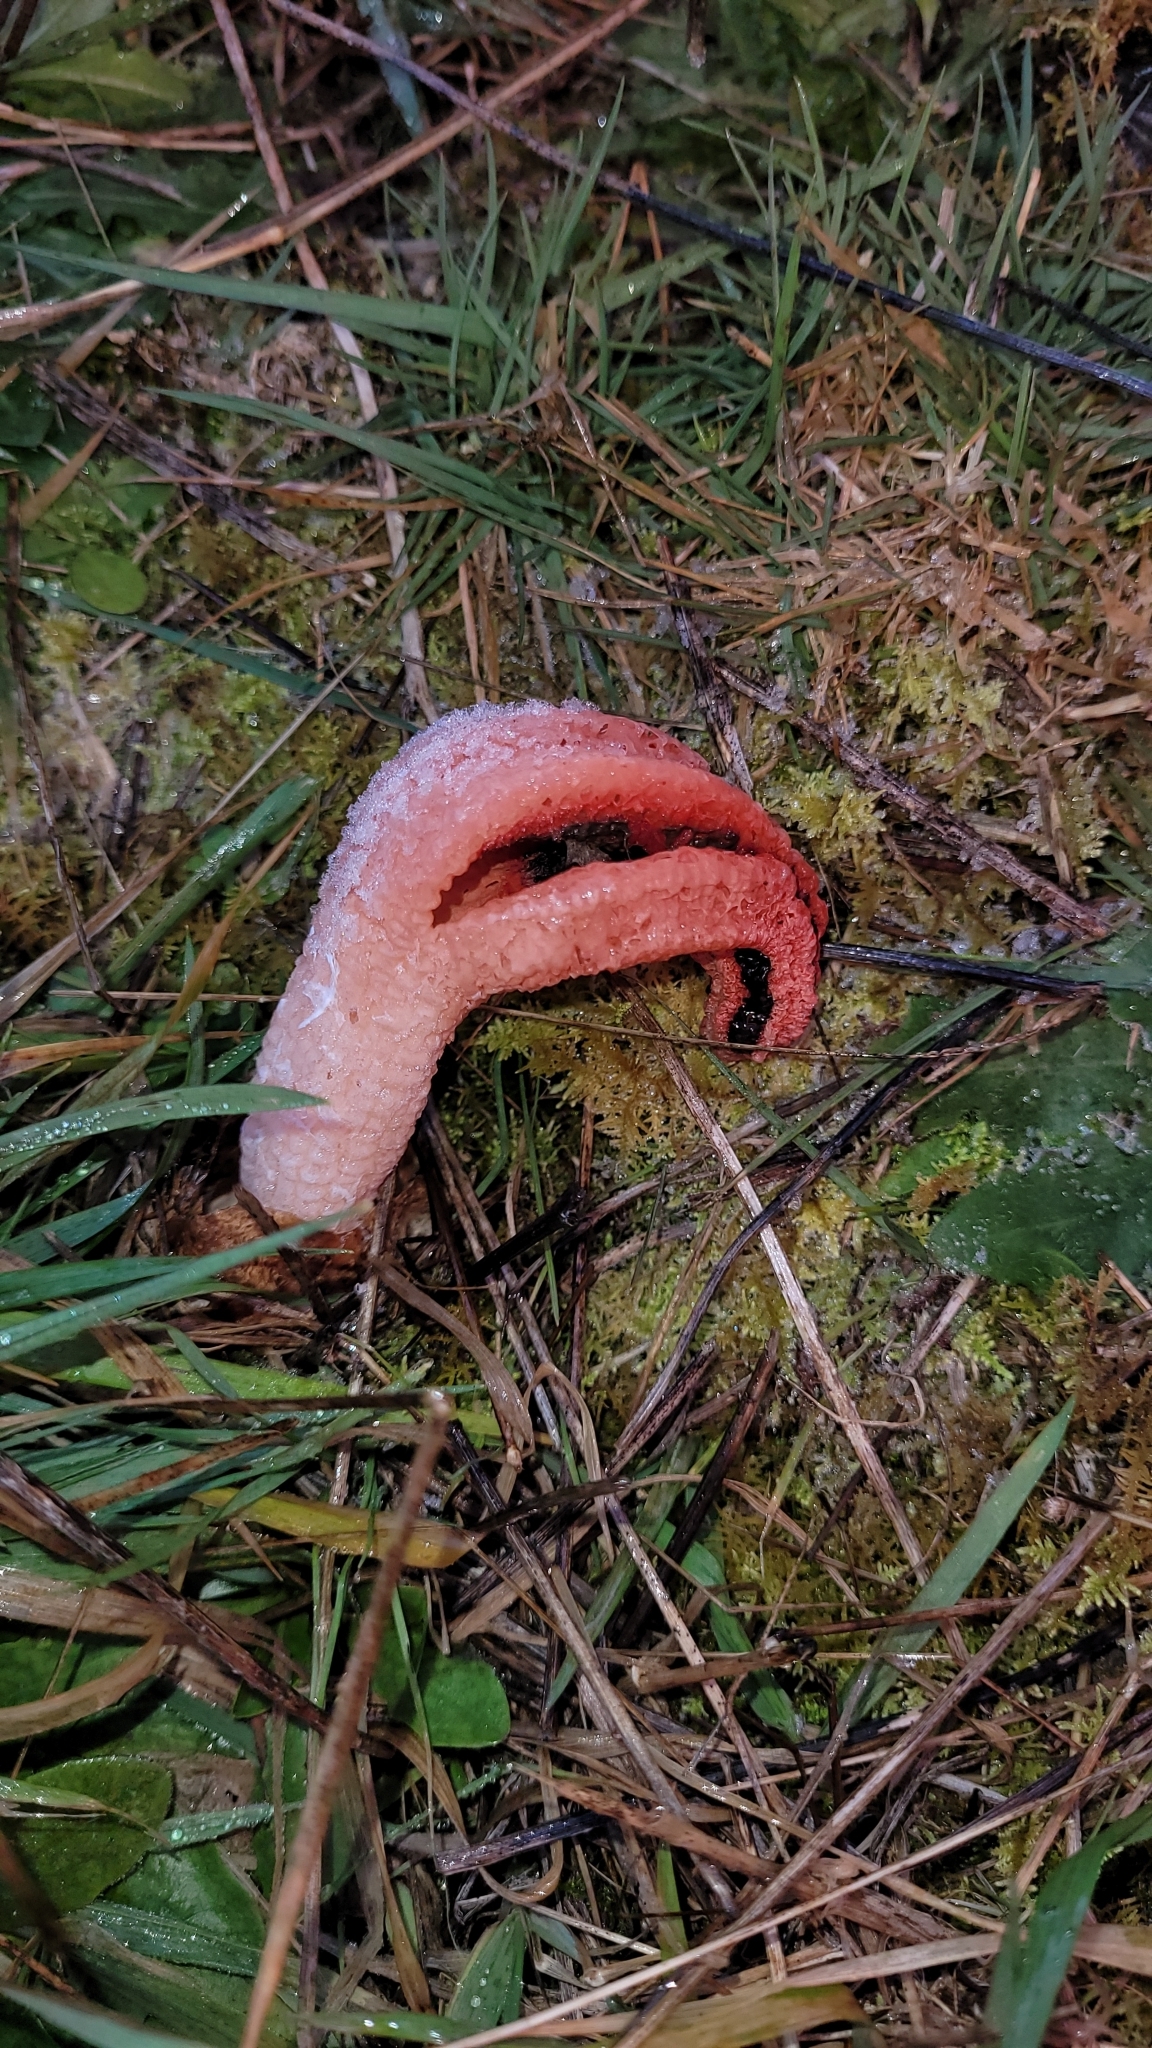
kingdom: Fungi
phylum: Basidiomycota
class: Agaricomycetes
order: Phallales
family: Phallaceae
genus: Clathrus
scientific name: Clathrus archeri
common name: Devil's fingers
